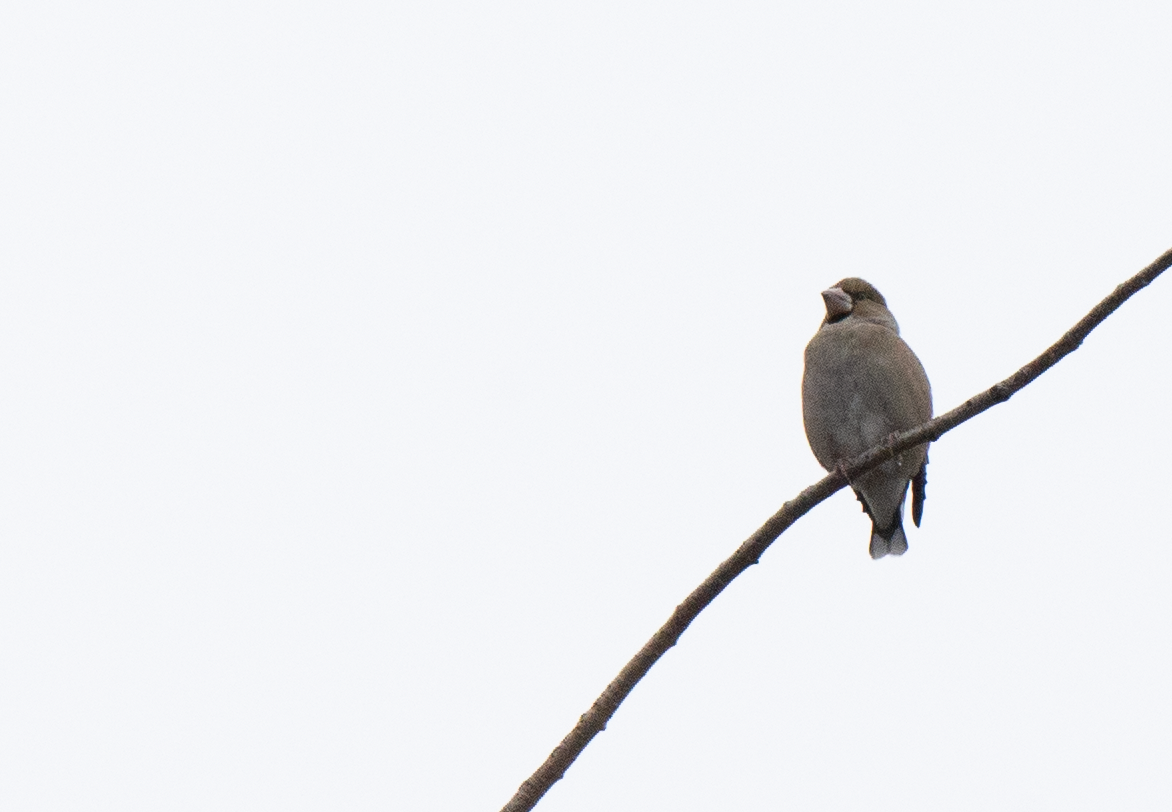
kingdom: Animalia
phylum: Chordata
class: Aves
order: Passeriformes
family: Fringillidae
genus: Coccothraustes
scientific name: Coccothraustes coccothraustes
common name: Hawfinch
